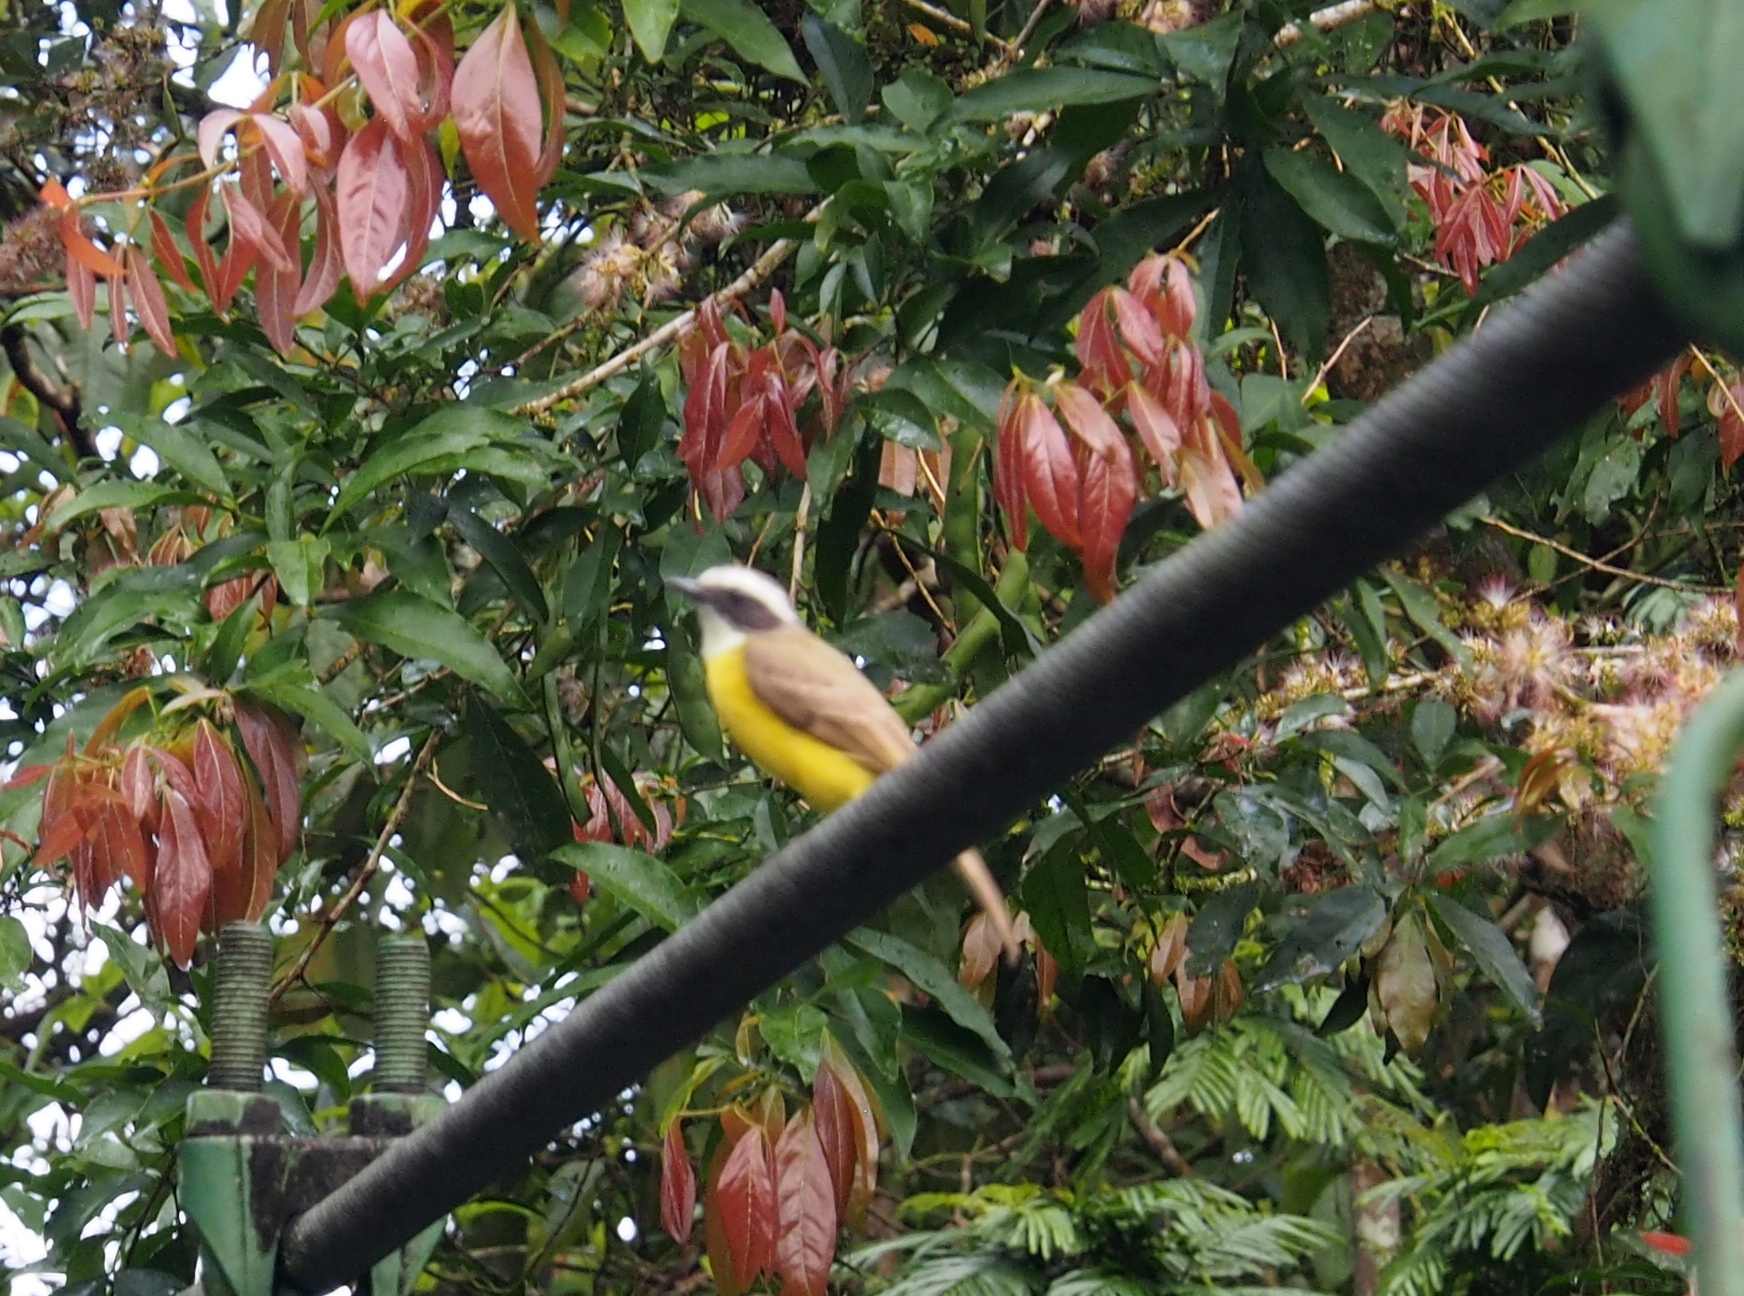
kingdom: Animalia
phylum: Chordata
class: Aves
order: Passeriformes
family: Tyrannidae
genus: Myiozetetes
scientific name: Myiozetetes similis
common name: Social flycatcher
